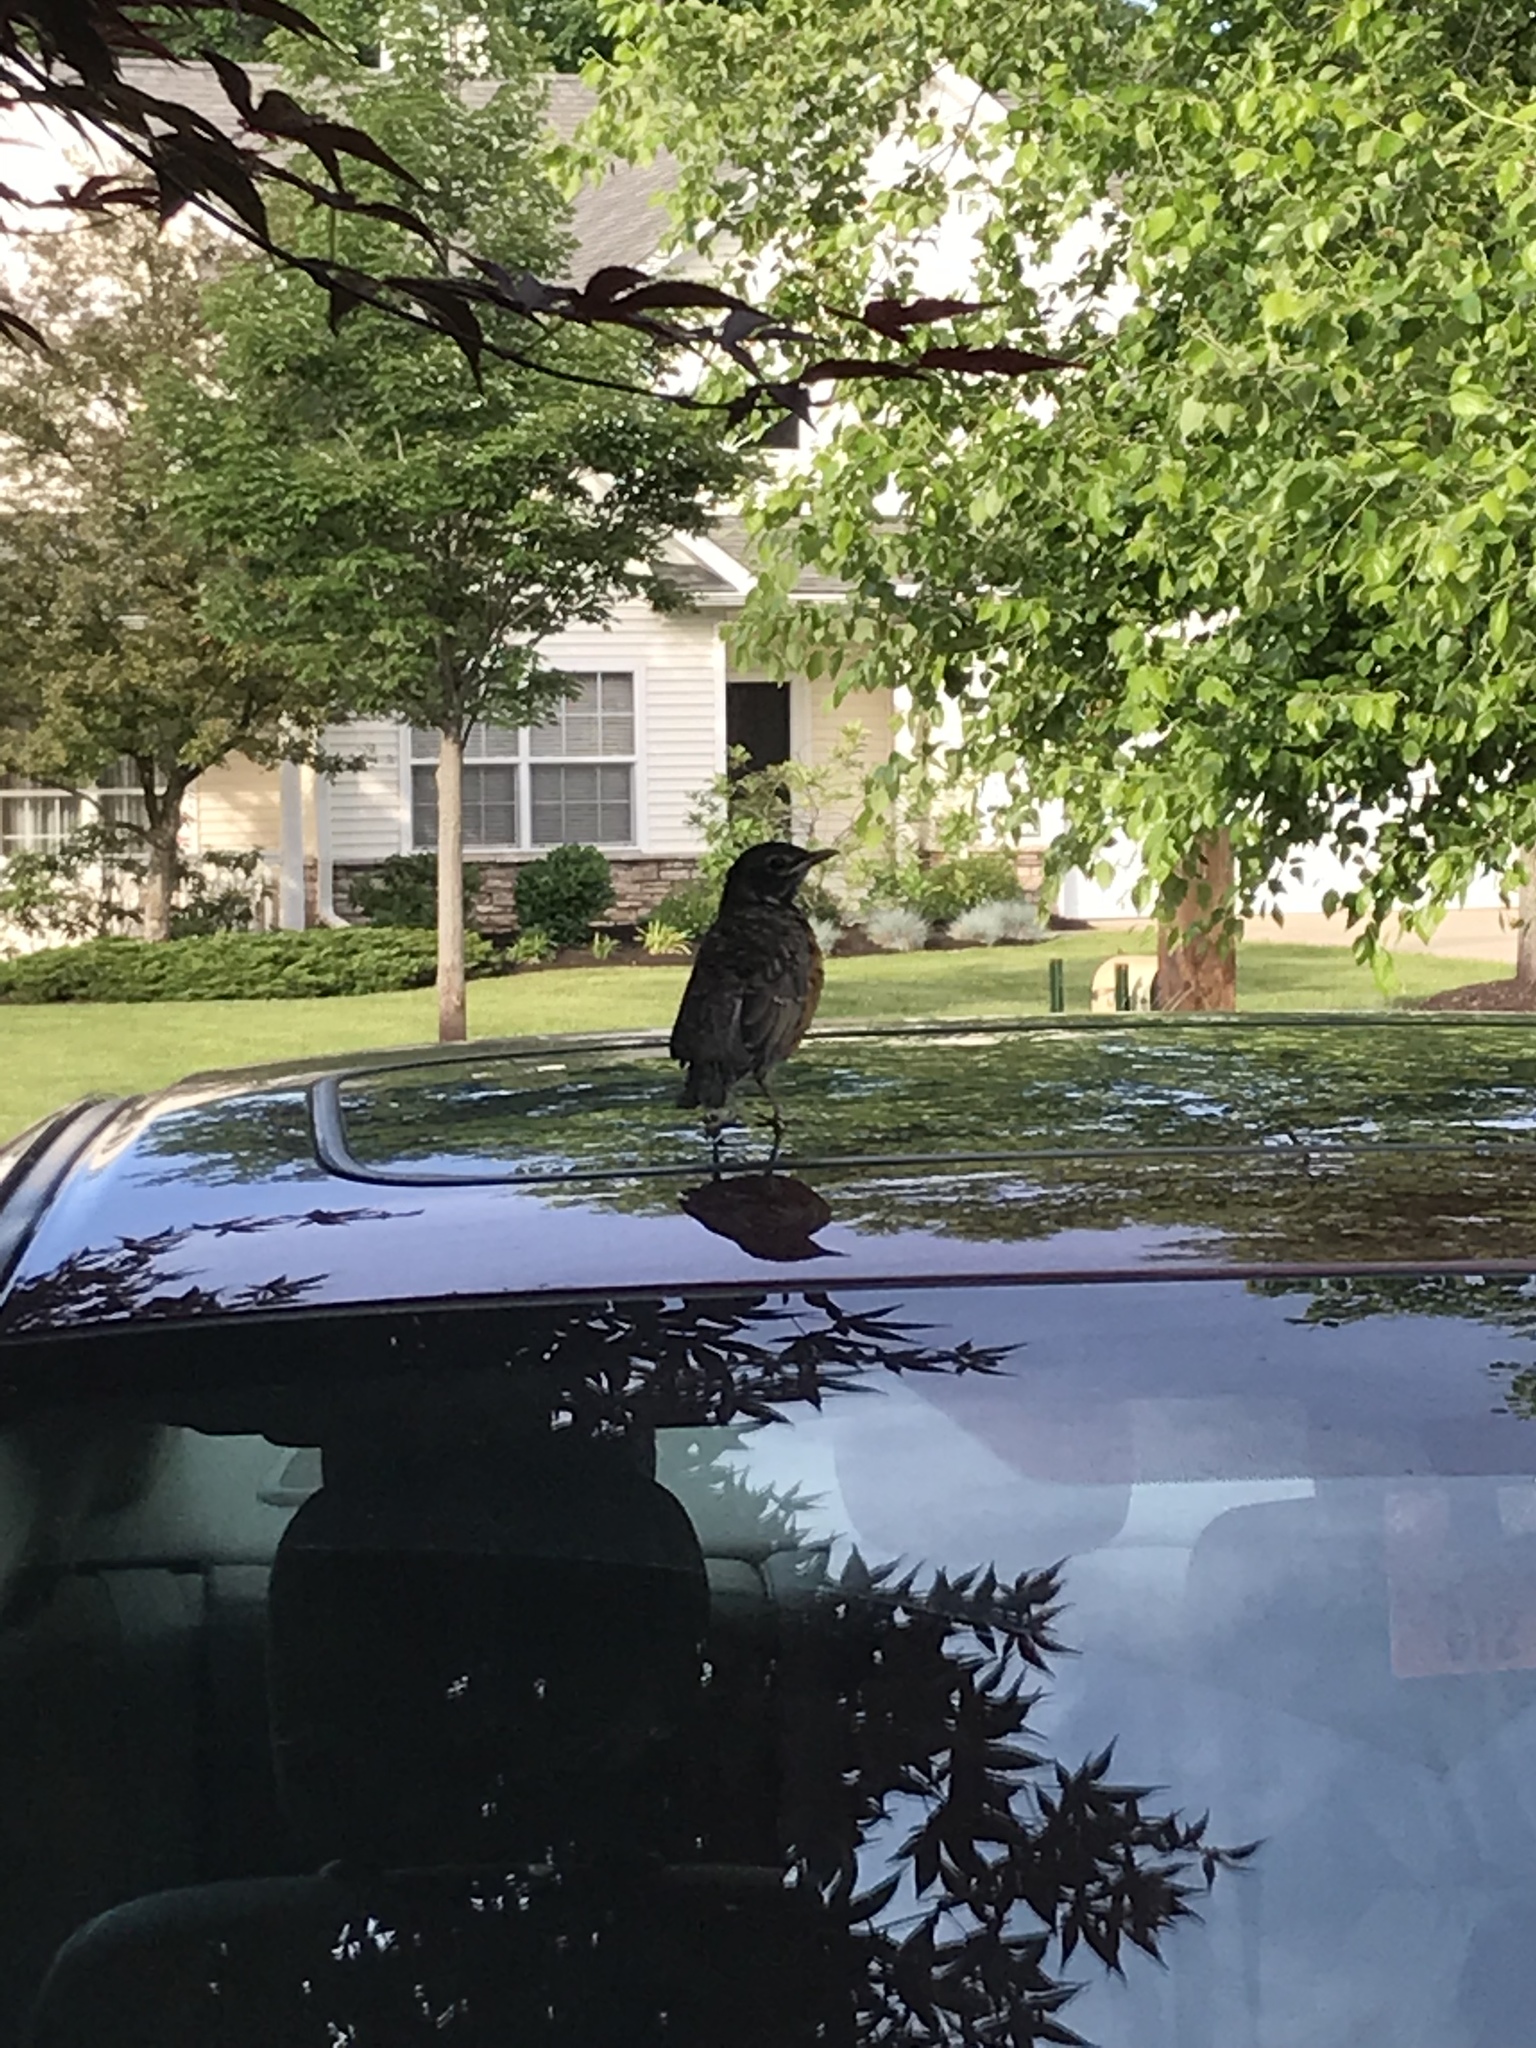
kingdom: Animalia
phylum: Chordata
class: Aves
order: Passeriformes
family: Turdidae
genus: Turdus
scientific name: Turdus migratorius
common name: American robin
